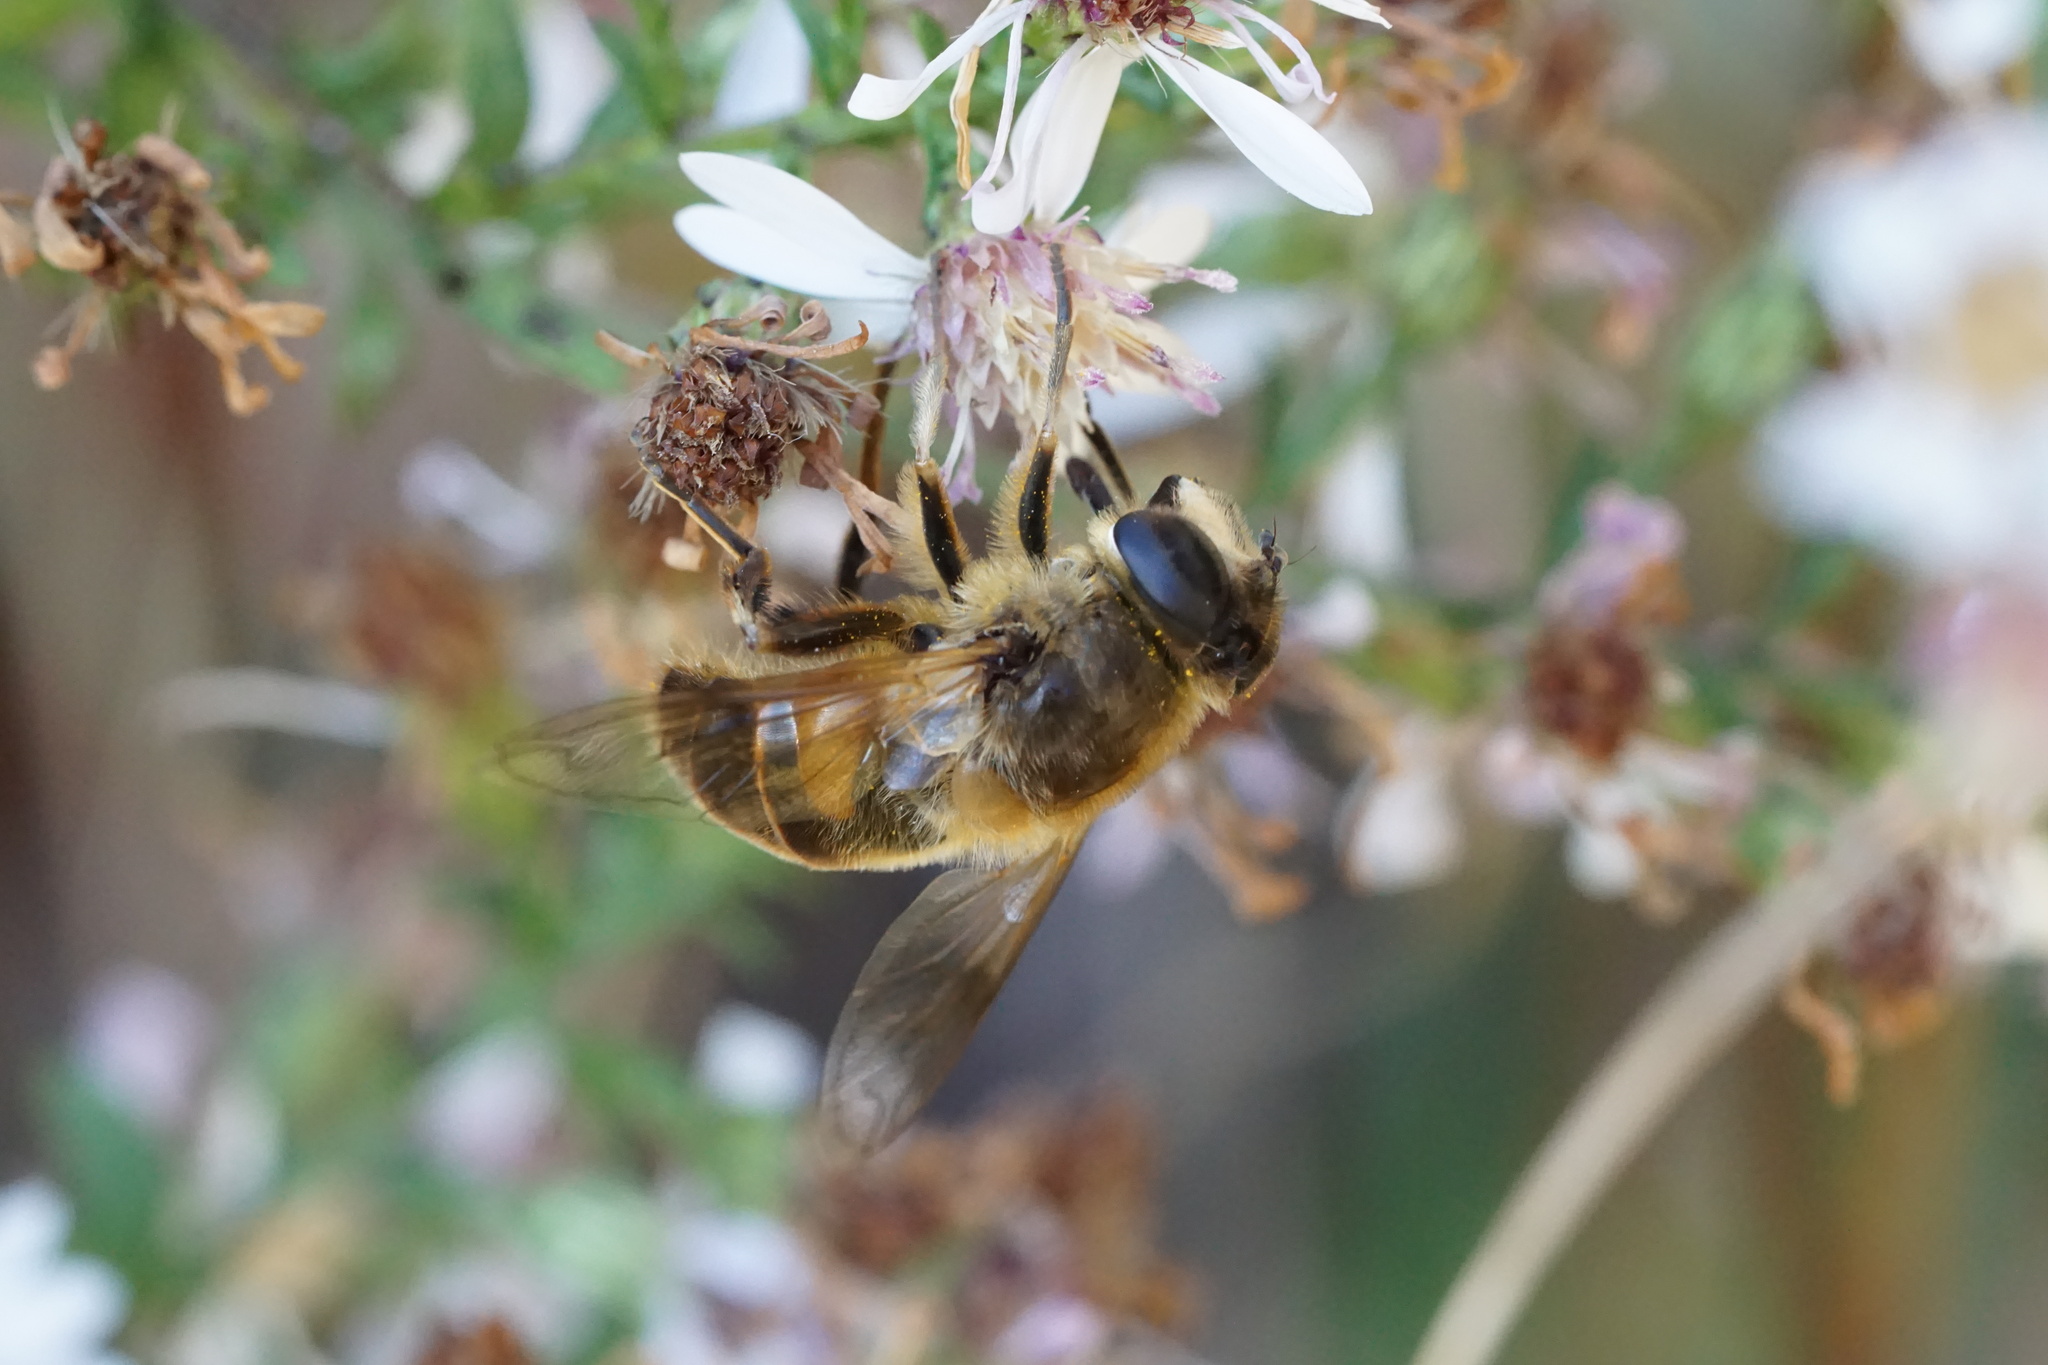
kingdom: Animalia
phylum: Arthropoda
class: Insecta
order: Diptera
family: Syrphidae
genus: Eristalis
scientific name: Eristalis tenax
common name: Drone fly
